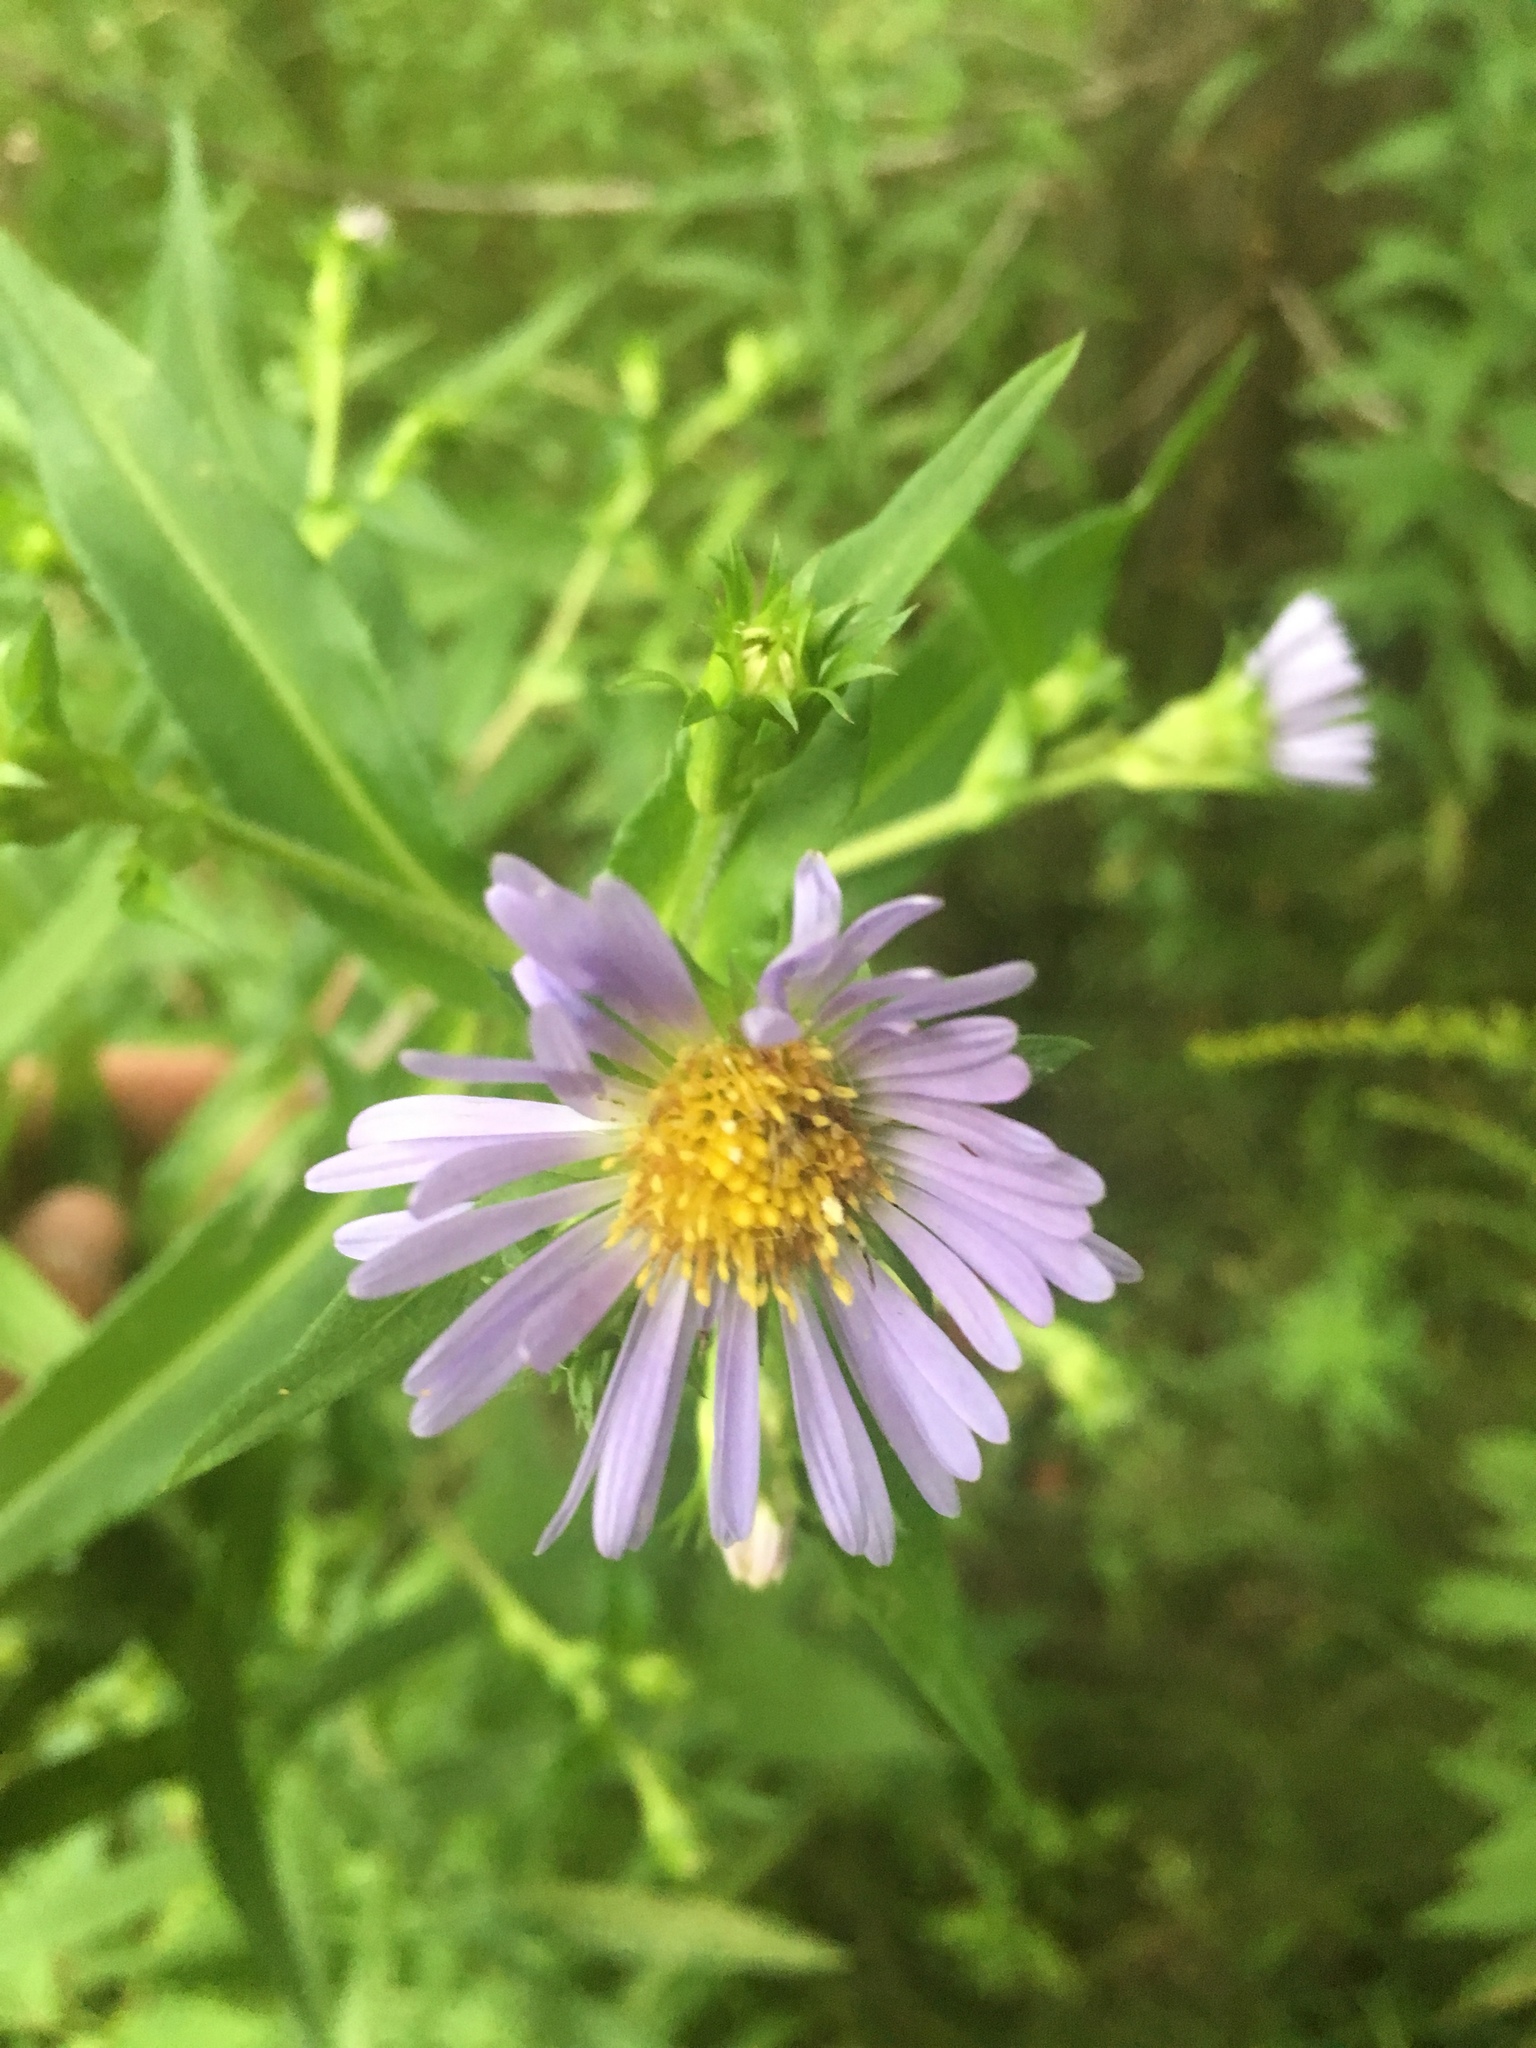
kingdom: Plantae
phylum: Tracheophyta
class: Magnoliopsida
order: Asterales
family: Asteraceae
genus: Symphyotrichum
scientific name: Symphyotrichum puniceum
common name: Bog aster
